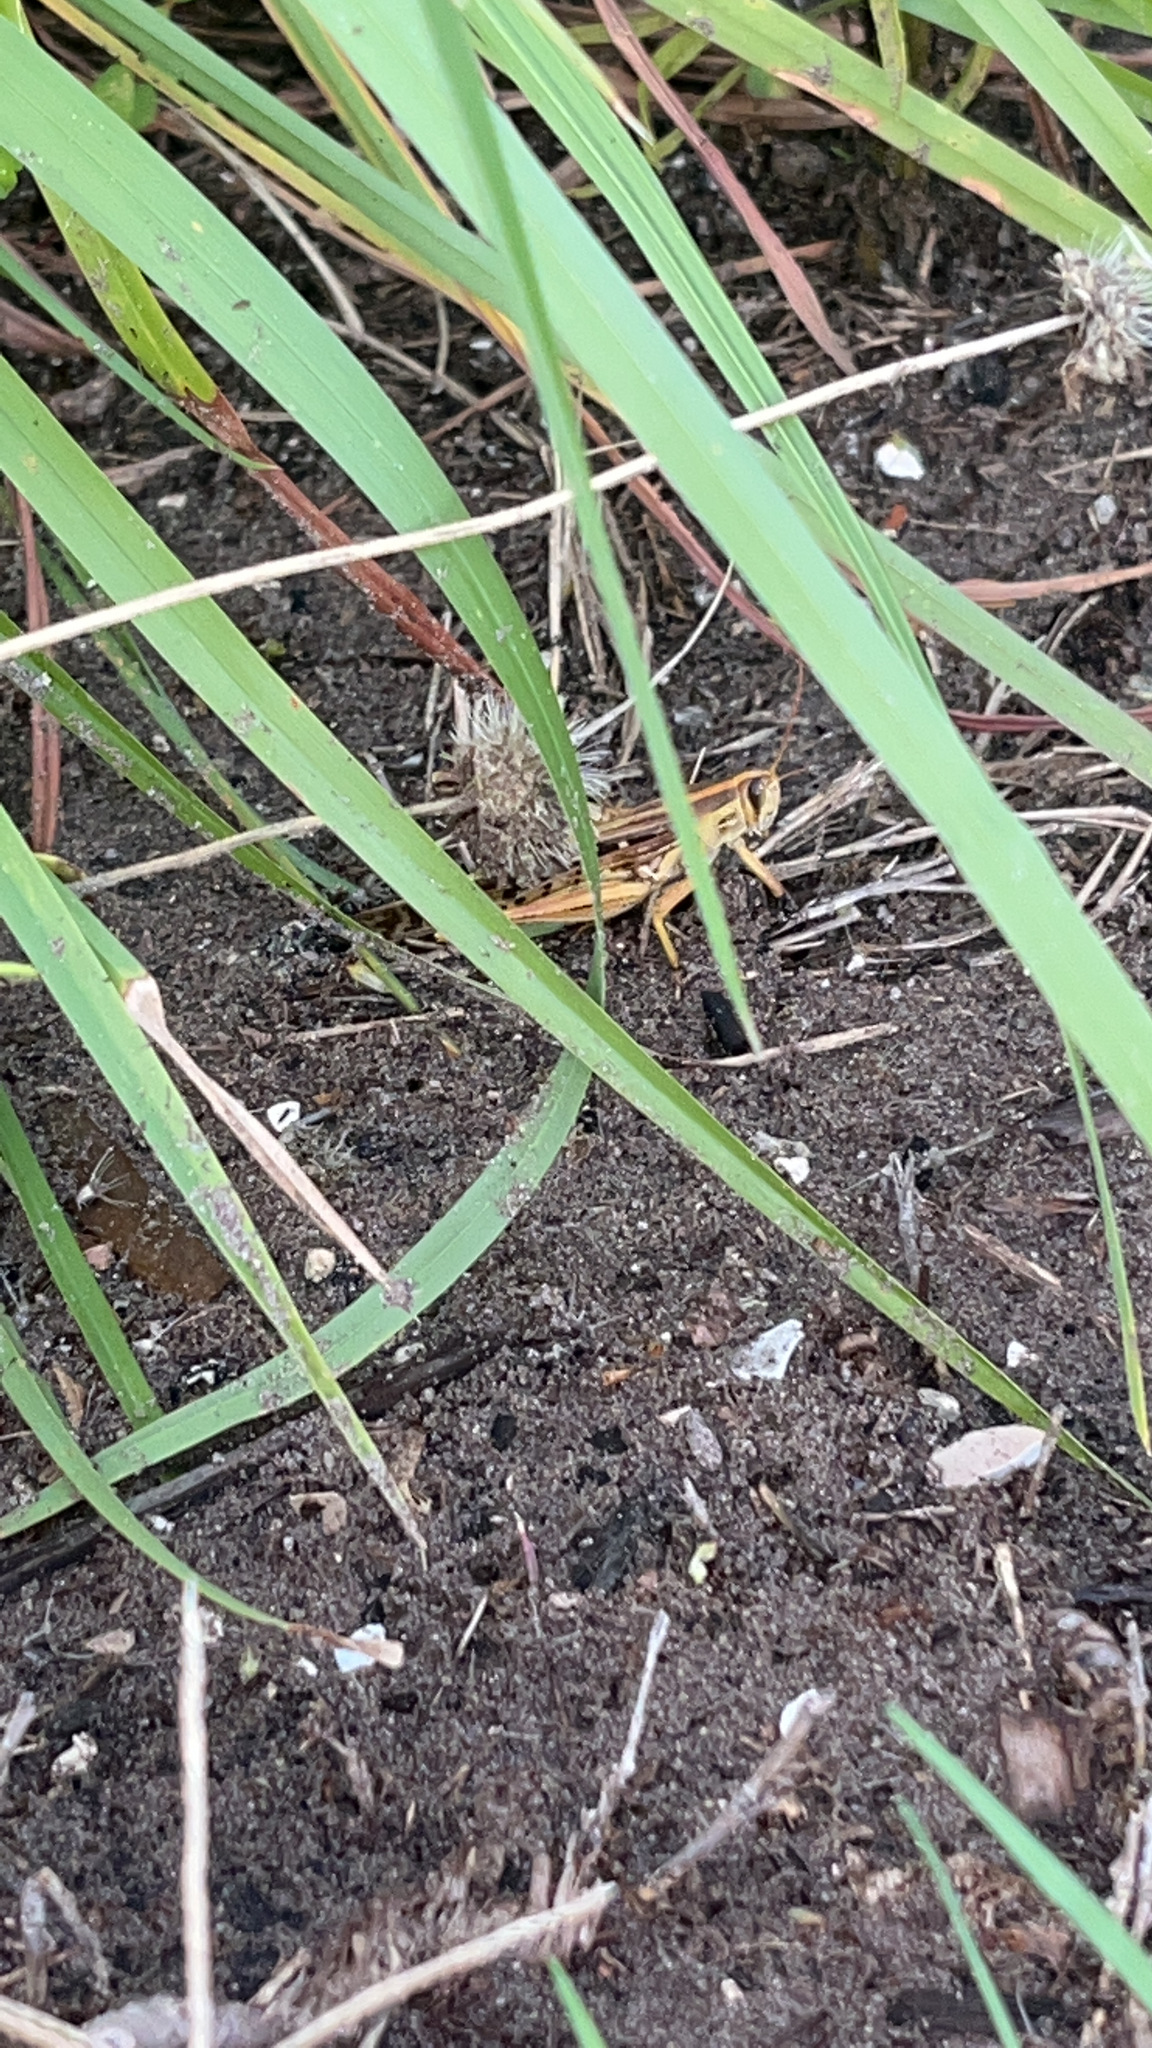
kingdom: Animalia
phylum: Arthropoda
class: Insecta
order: Orthoptera
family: Acrididae
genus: Schistocerca
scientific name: Schistocerca
